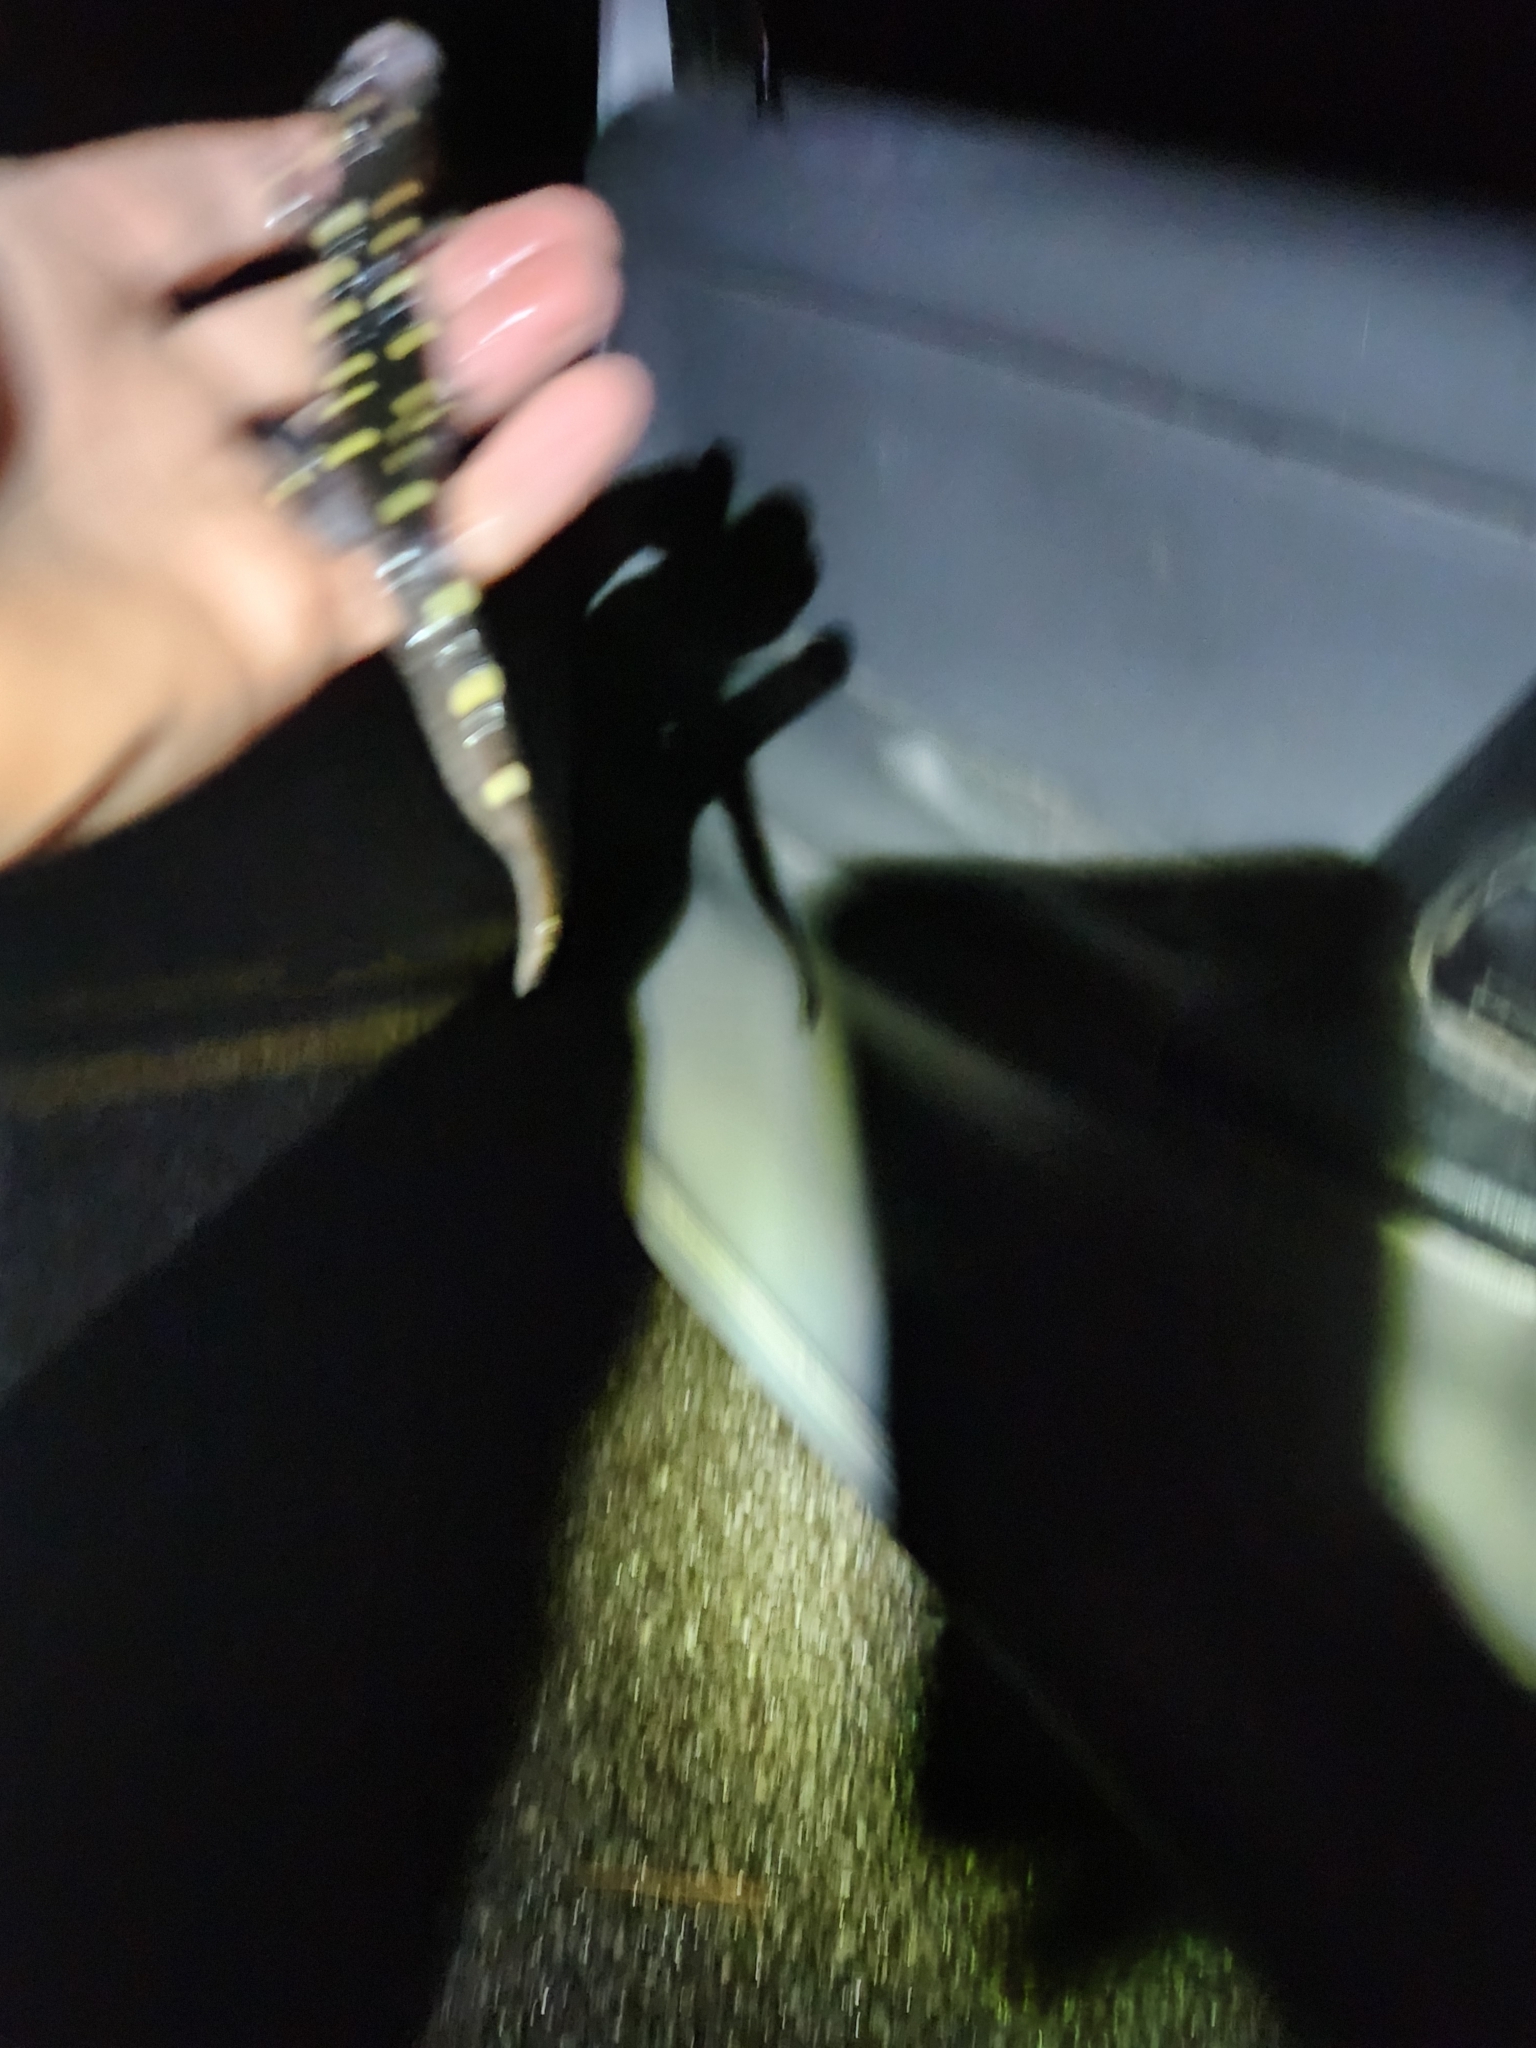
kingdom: Animalia
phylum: Chordata
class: Amphibia
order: Caudata
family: Ambystomatidae
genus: Ambystoma
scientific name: Ambystoma maculatum
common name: Spotted salamander
